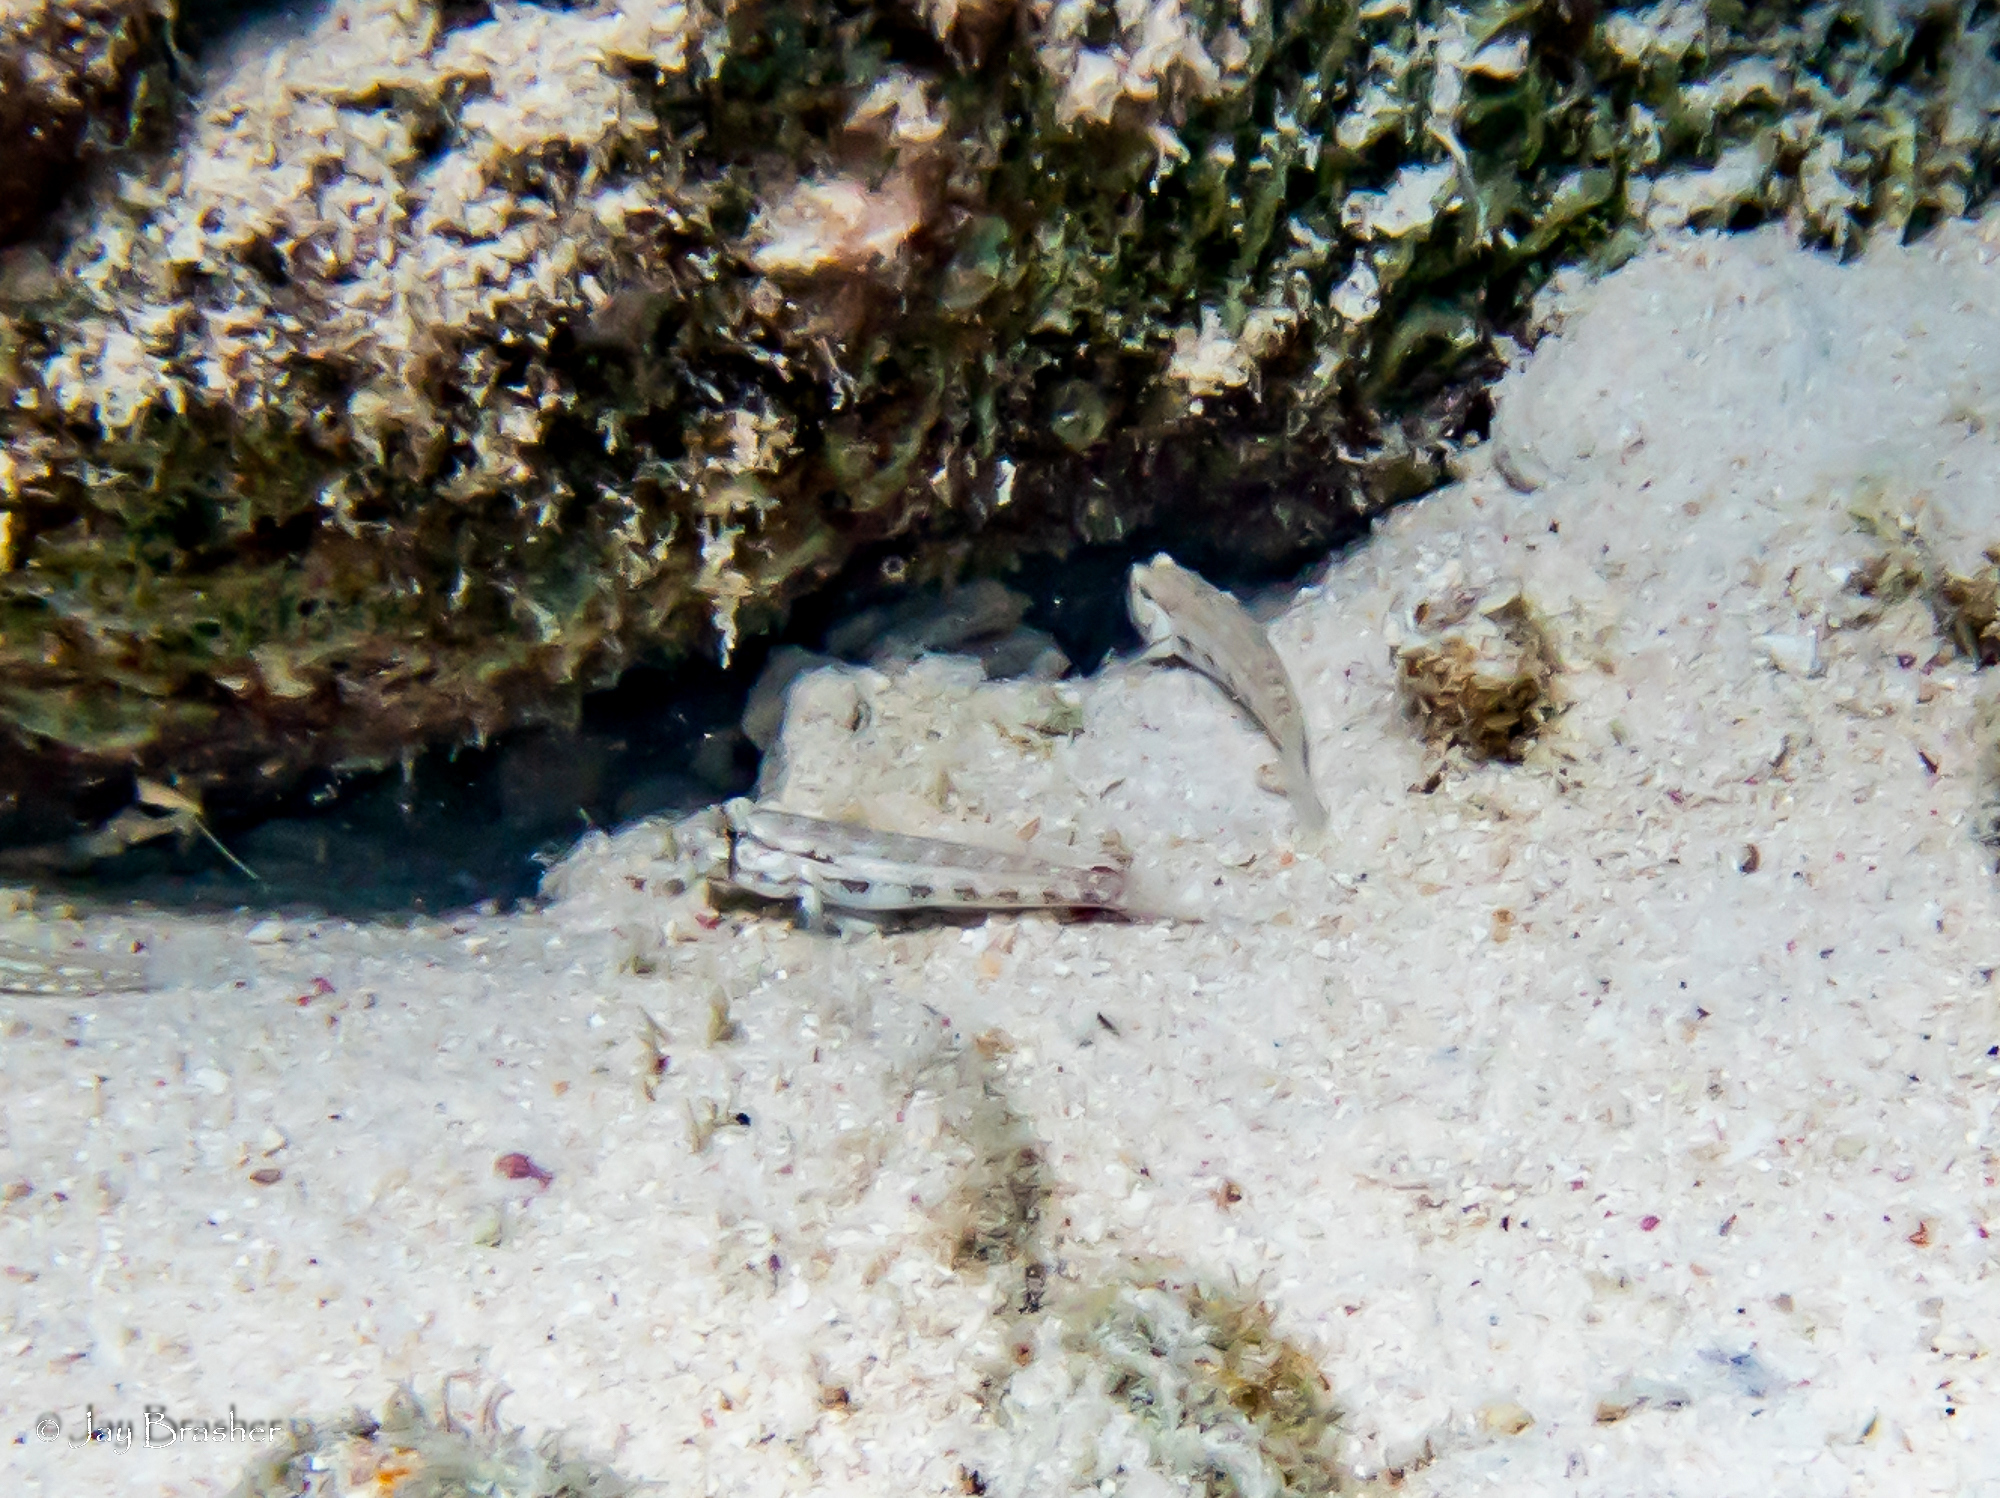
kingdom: Animalia
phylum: Chordata
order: Perciformes
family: Gobiidae
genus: Gnatholepis
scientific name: Gnatholepis thompsoni
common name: Goldspot goby
